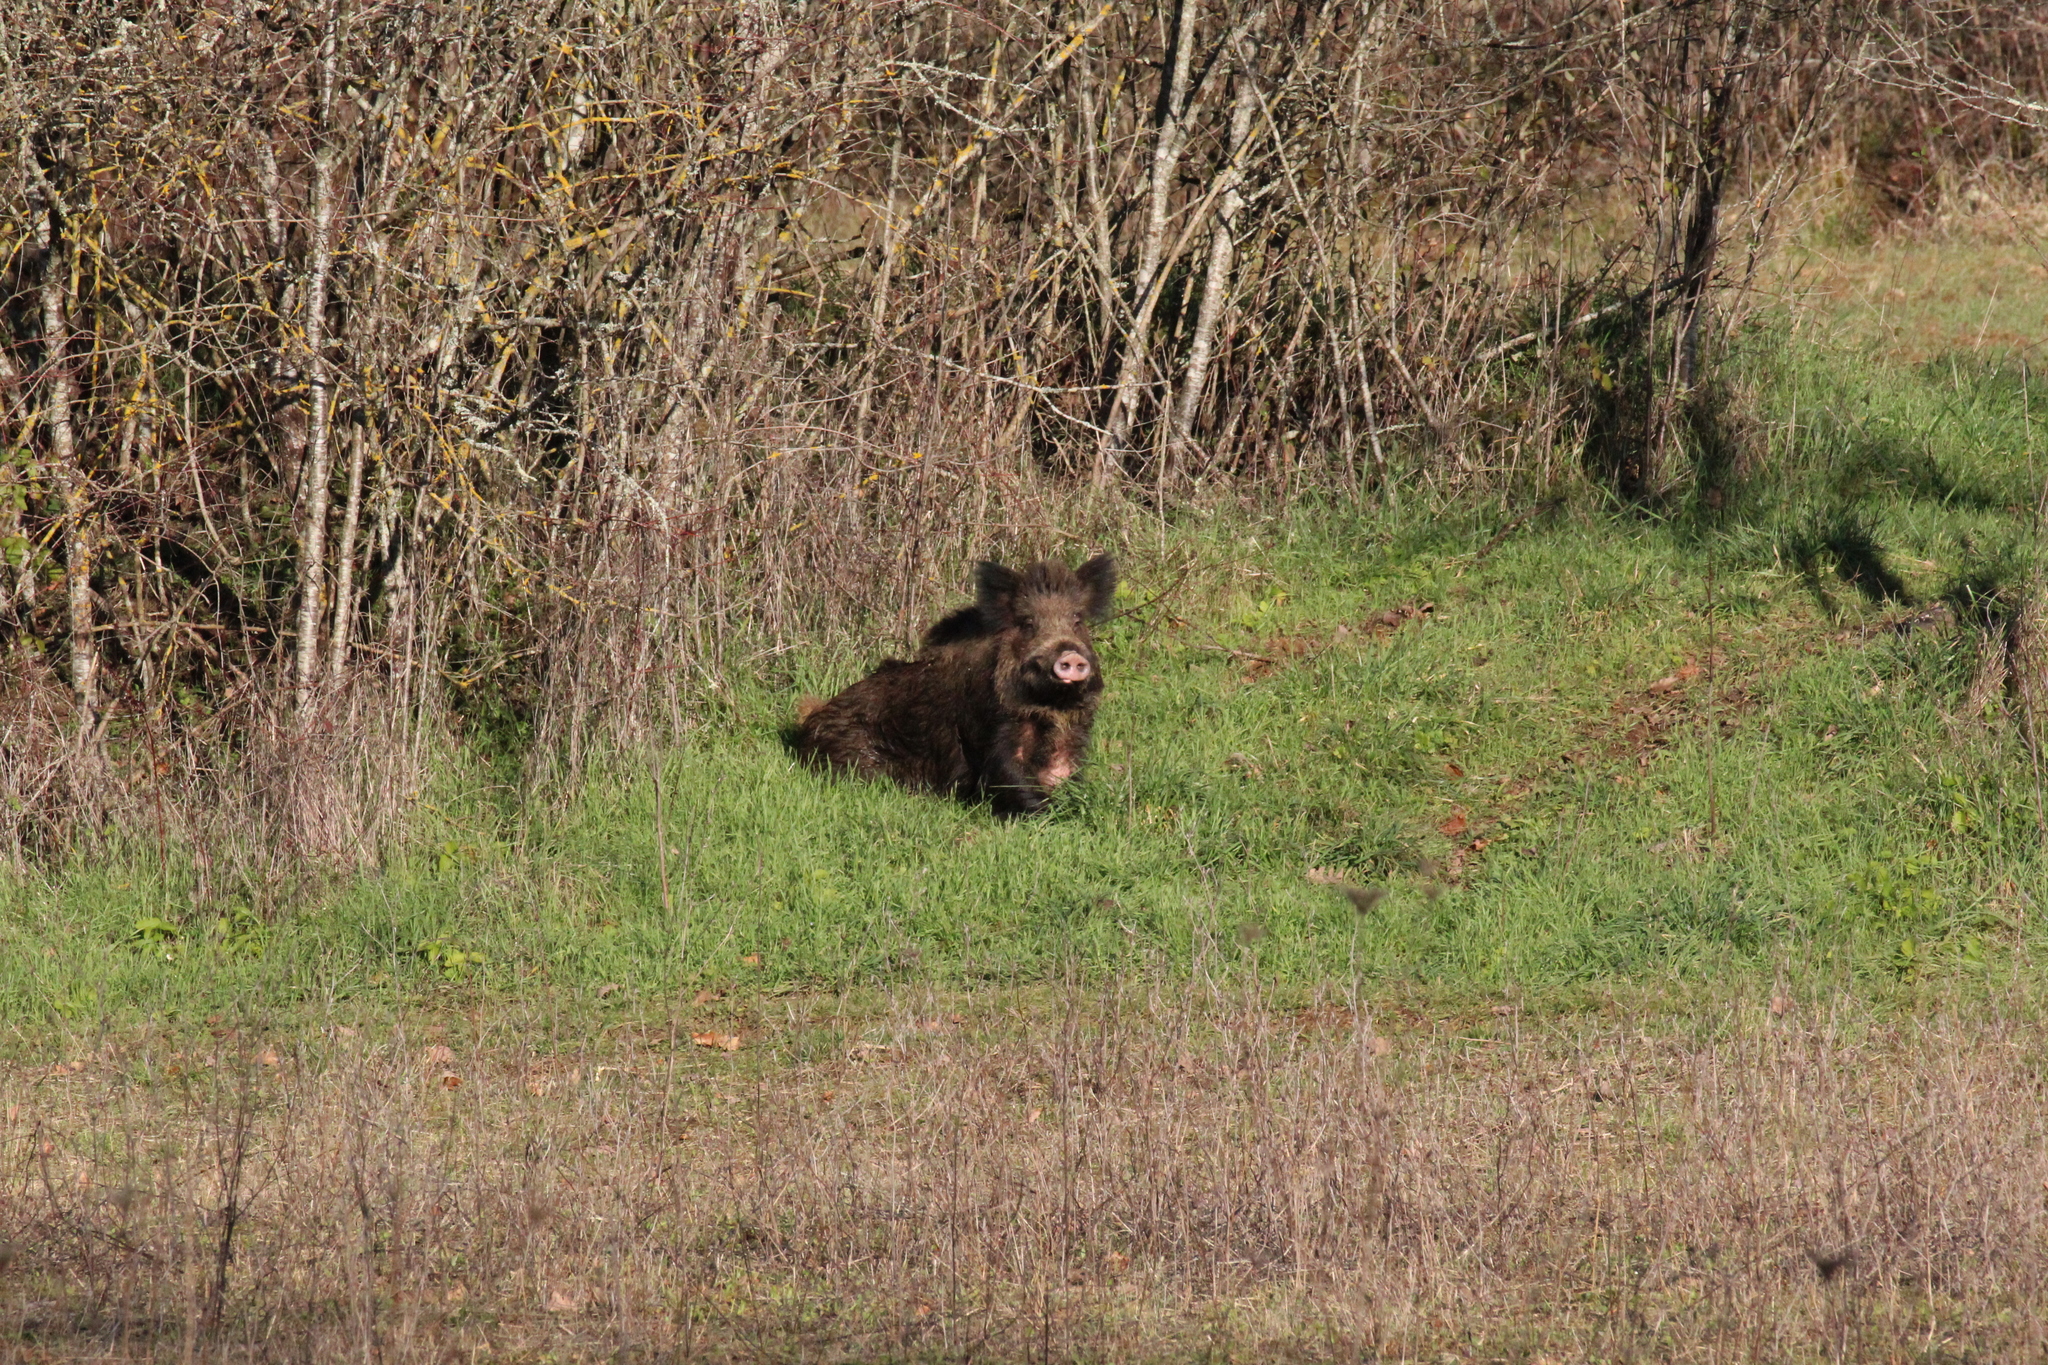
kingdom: Animalia
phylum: Chordata
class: Mammalia
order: Artiodactyla
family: Suidae
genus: Sus
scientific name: Sus scrofa
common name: Wild boar
